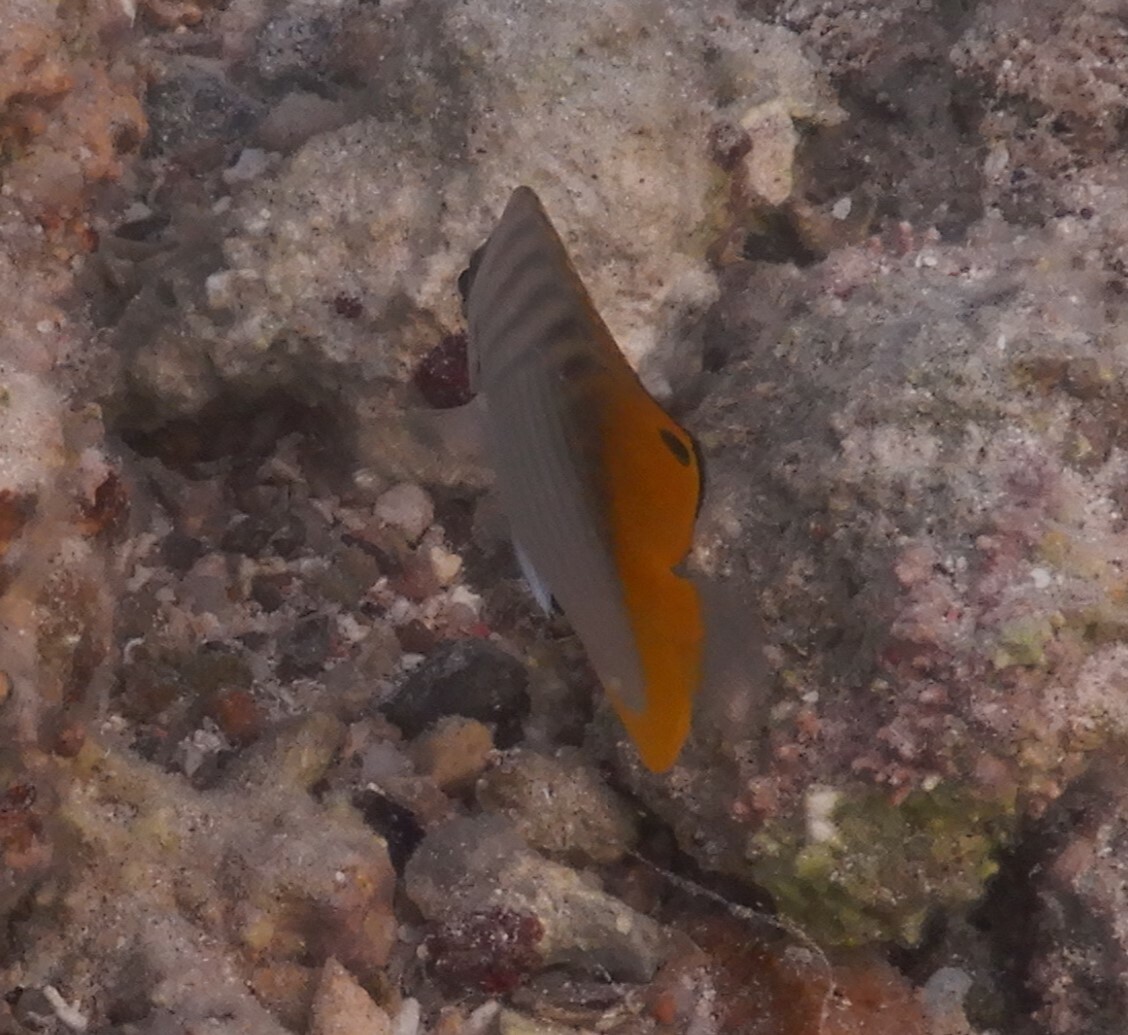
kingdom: Animalia
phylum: Chordata
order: Perciformes
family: Chaetodontidae
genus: Chaetodon
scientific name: Chaetodon auriga
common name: Threadfin butterflyfish
